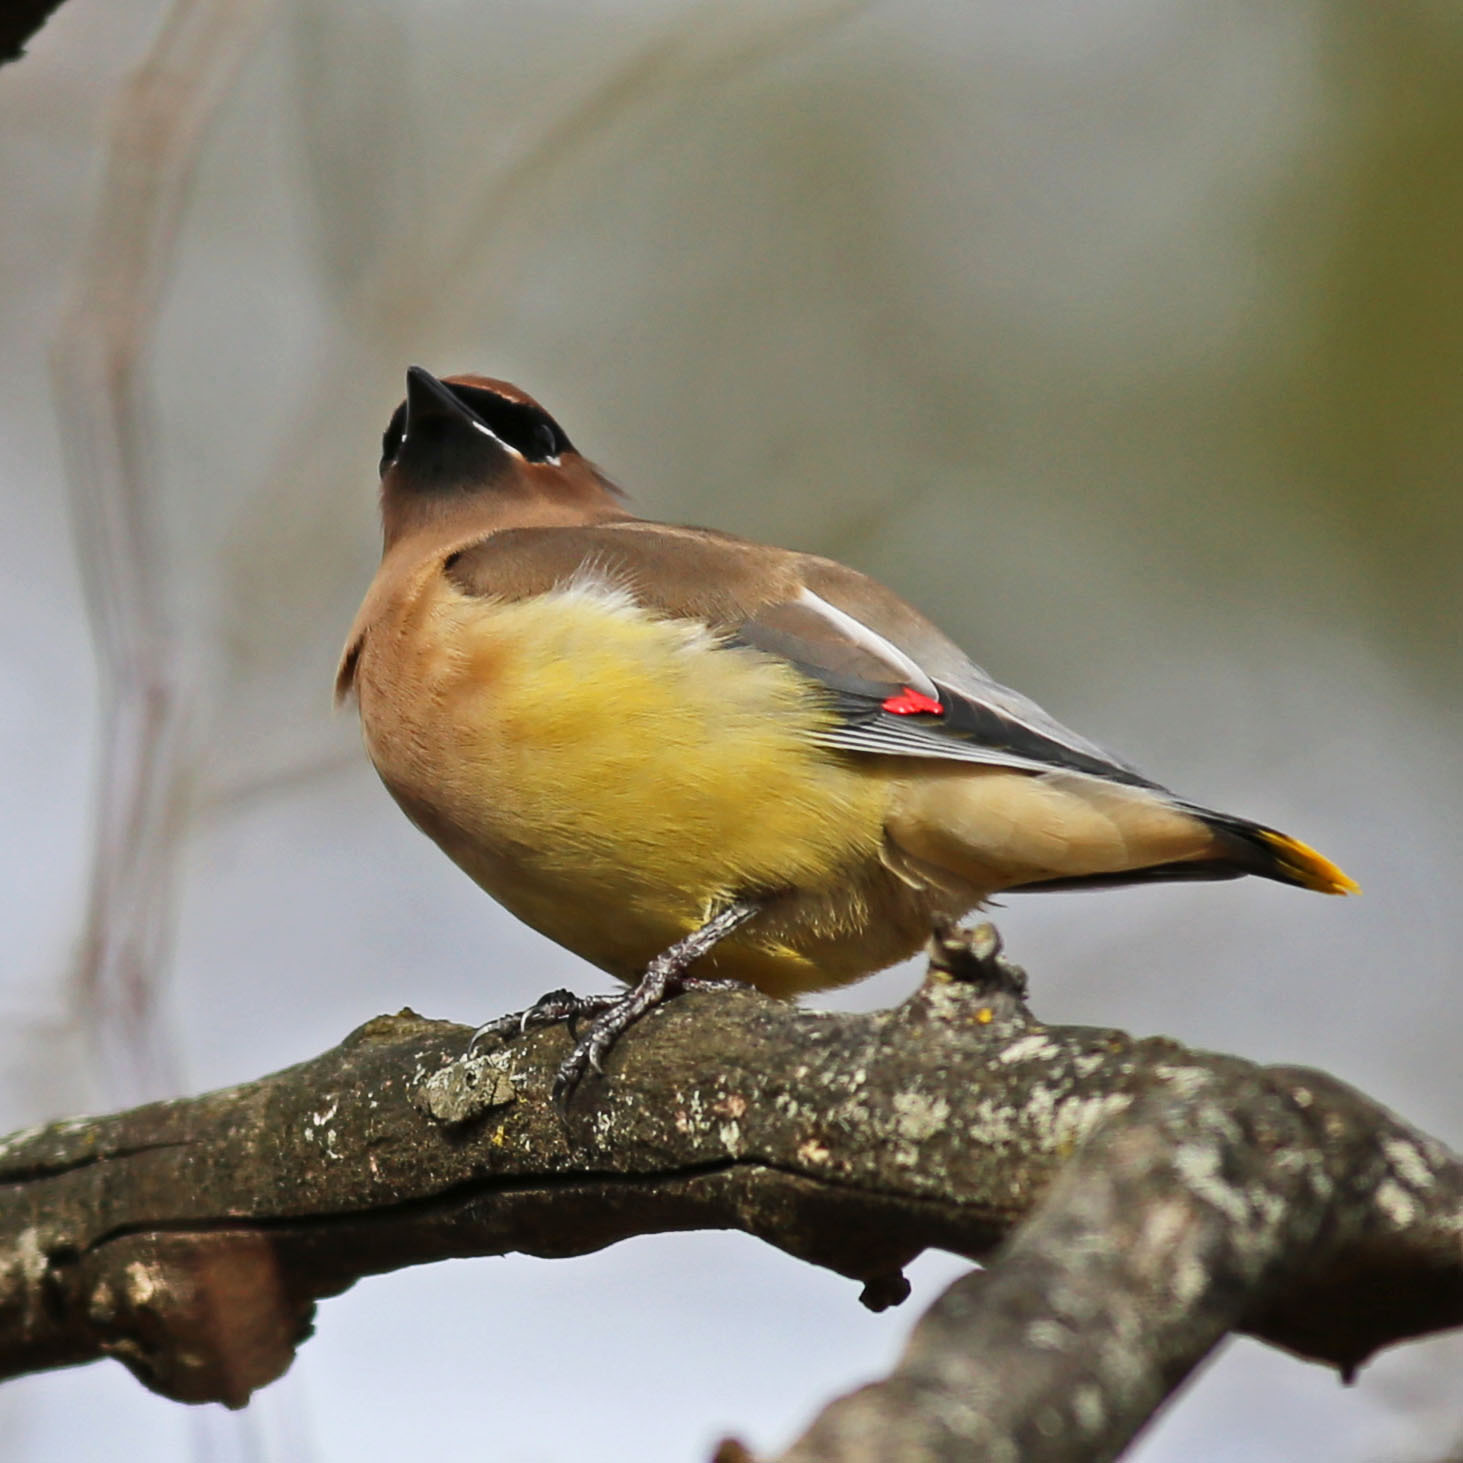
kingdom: Animalia
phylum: Chordata
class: Aves
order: Passeriformes
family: Bombycillidae
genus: Bombycilla
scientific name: Bombycilla cedrorum
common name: Cedar waxwing
